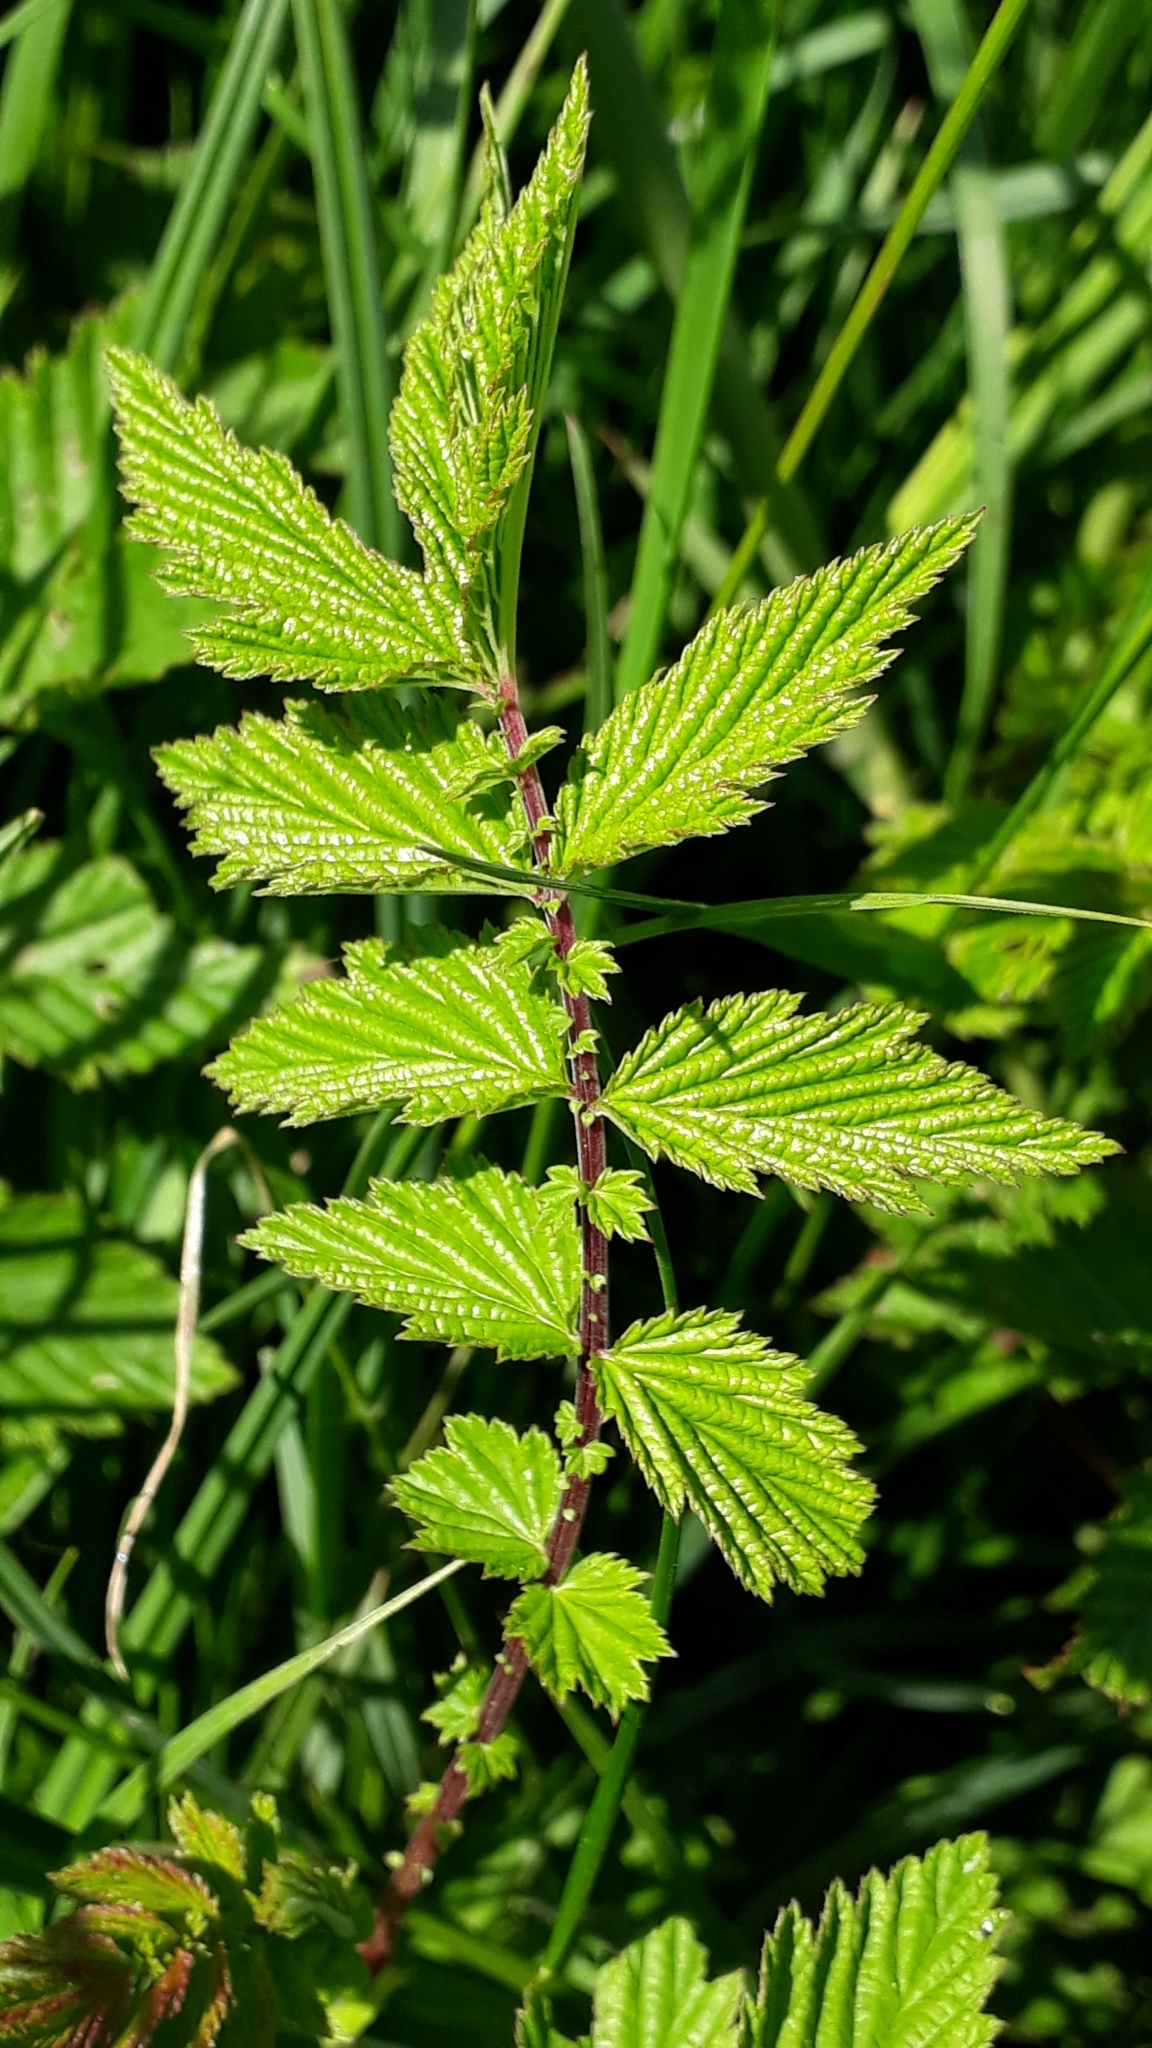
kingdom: Plantae
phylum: Tracheophyta
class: Magnoliopsida
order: Rosales
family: Rosaceae
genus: Filipendula
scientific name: Filipendula ulmaria
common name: Meadowsweet
